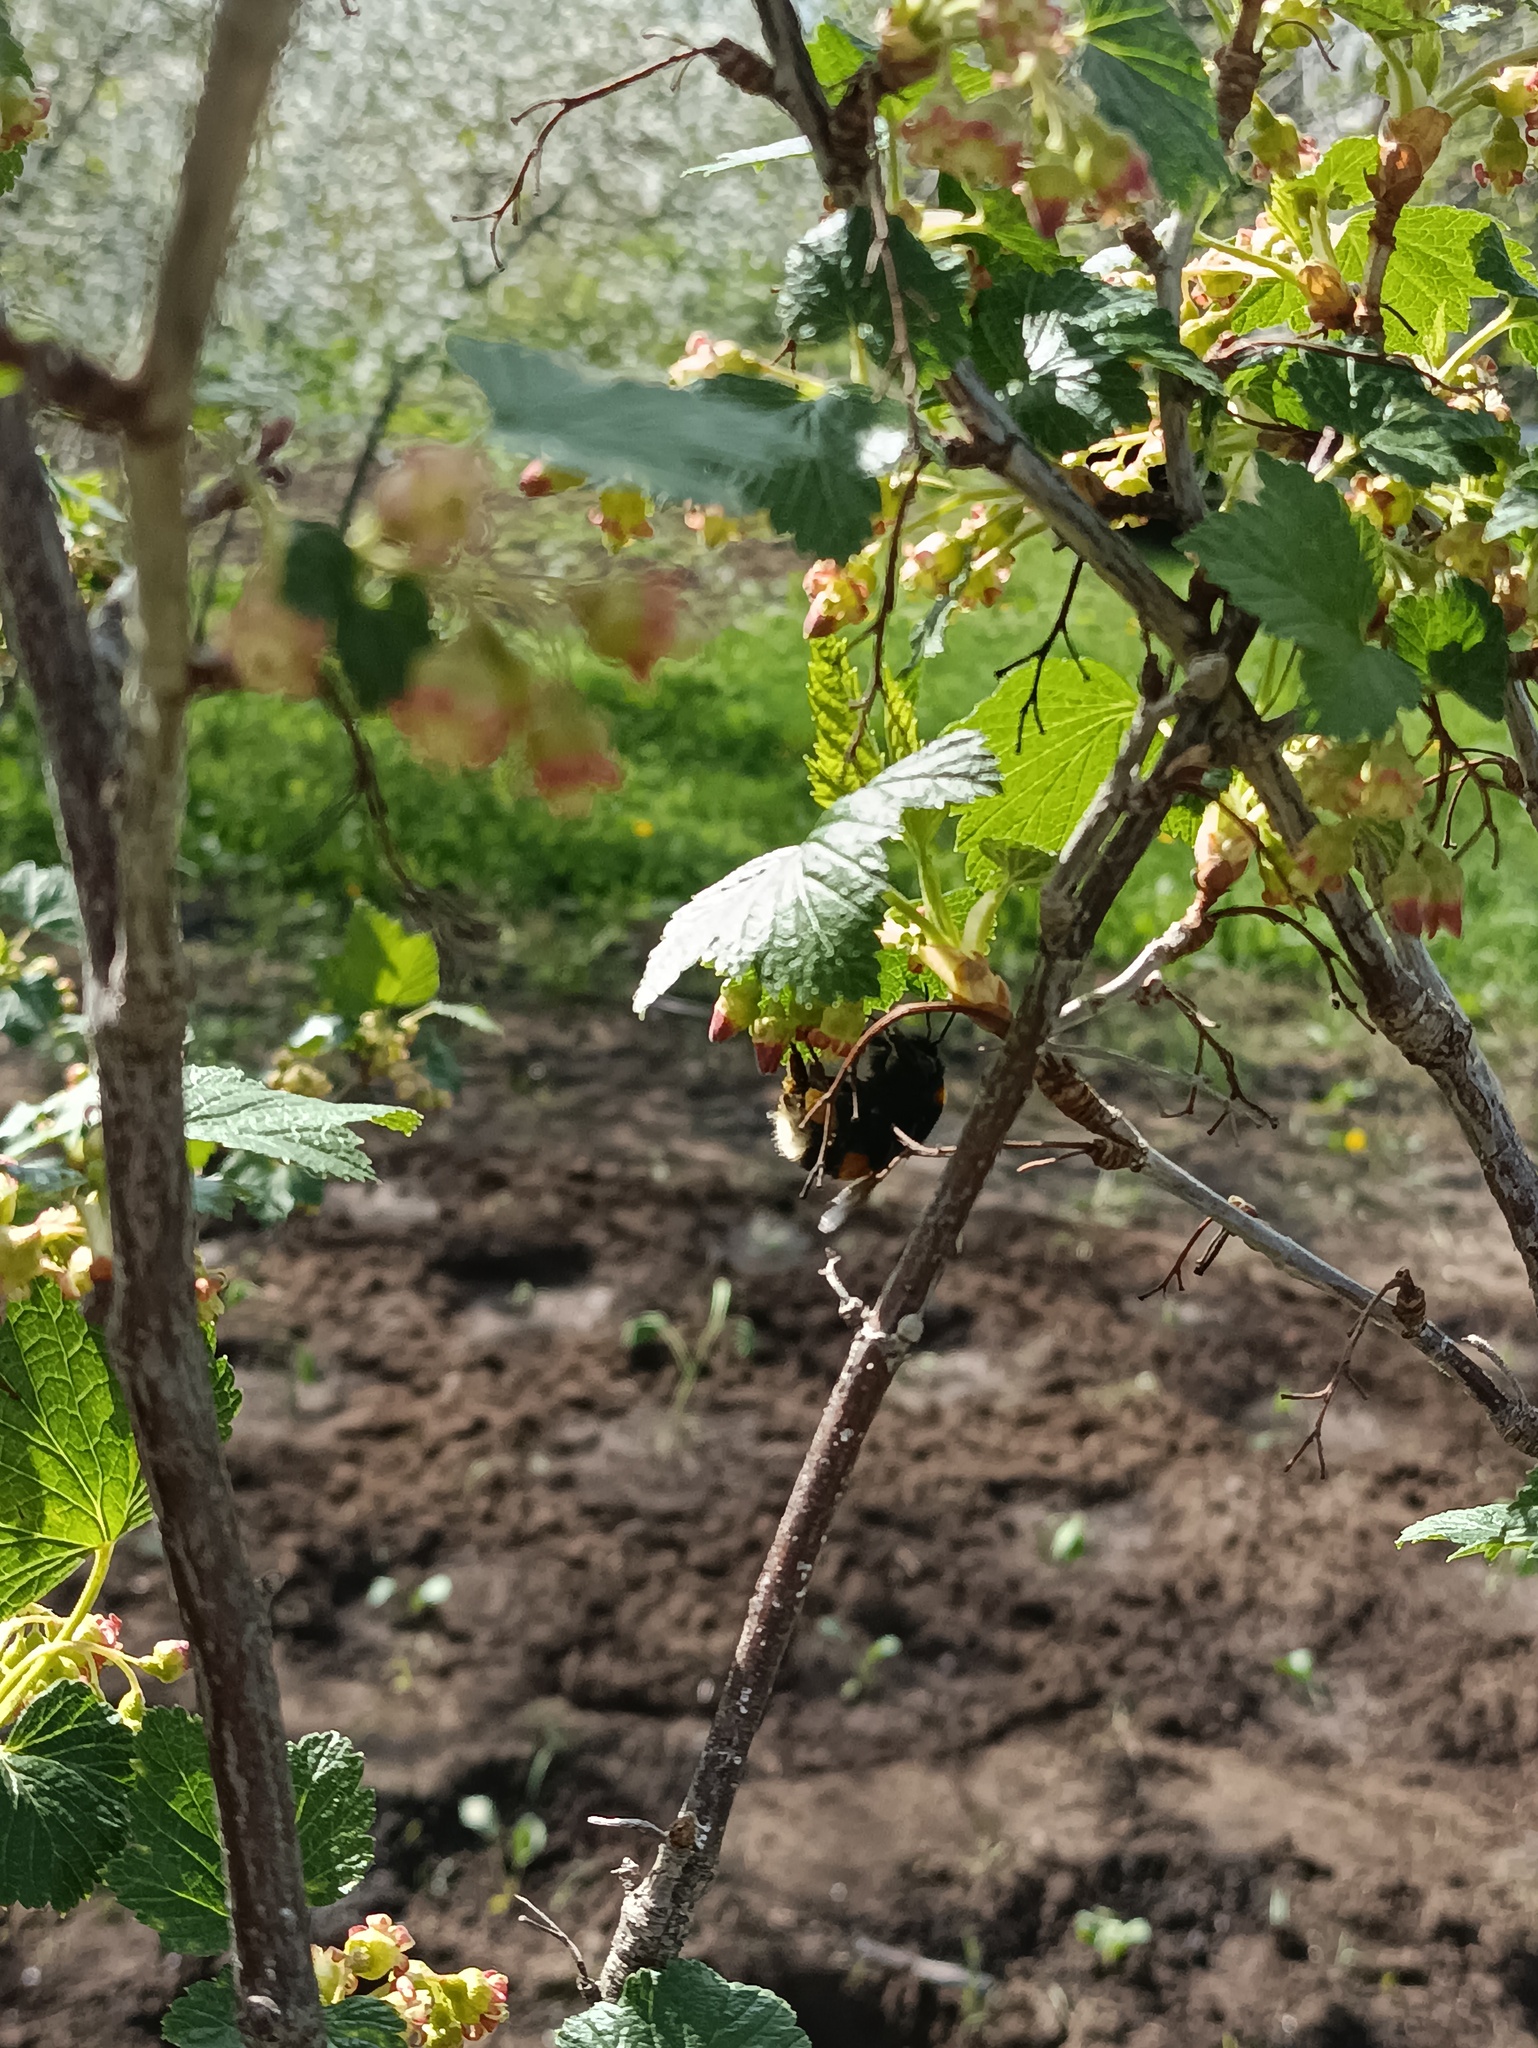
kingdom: Animalia
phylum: Arthropoda
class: Insecta
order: Hymenoptera
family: Apidae
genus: Bombus
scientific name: Bombus
